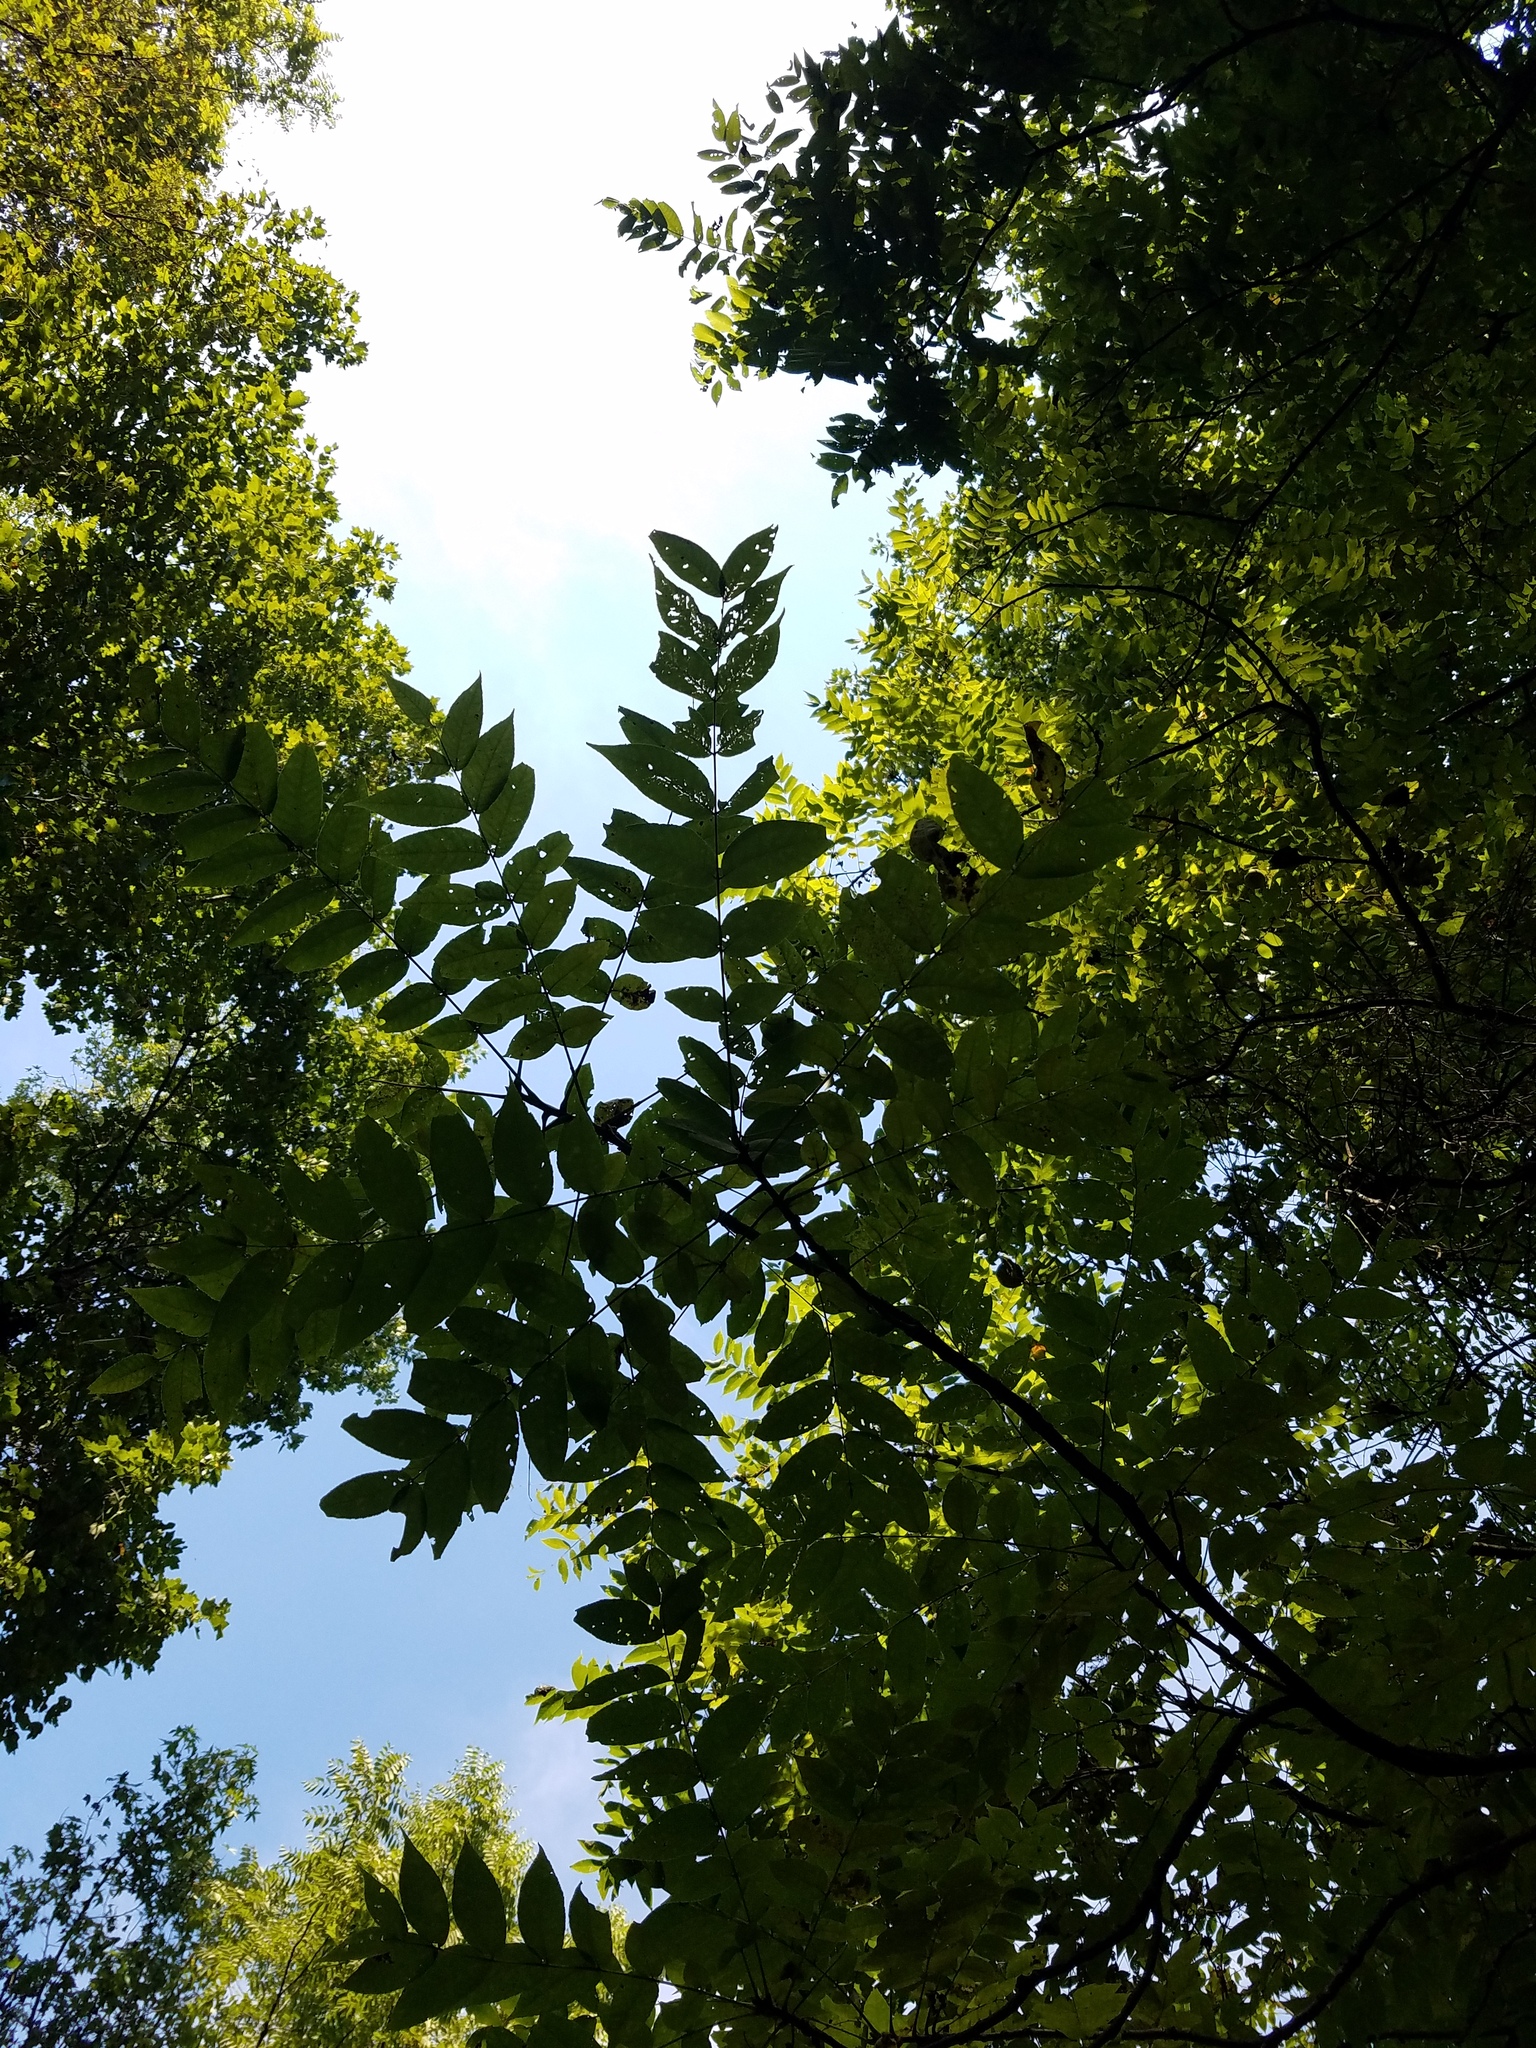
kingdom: Plantae
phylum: Tracheophyta
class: Magnoliopsida
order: Fagales
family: Juglandaceae
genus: Juglans
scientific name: Juglans nigra
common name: Black walnut
